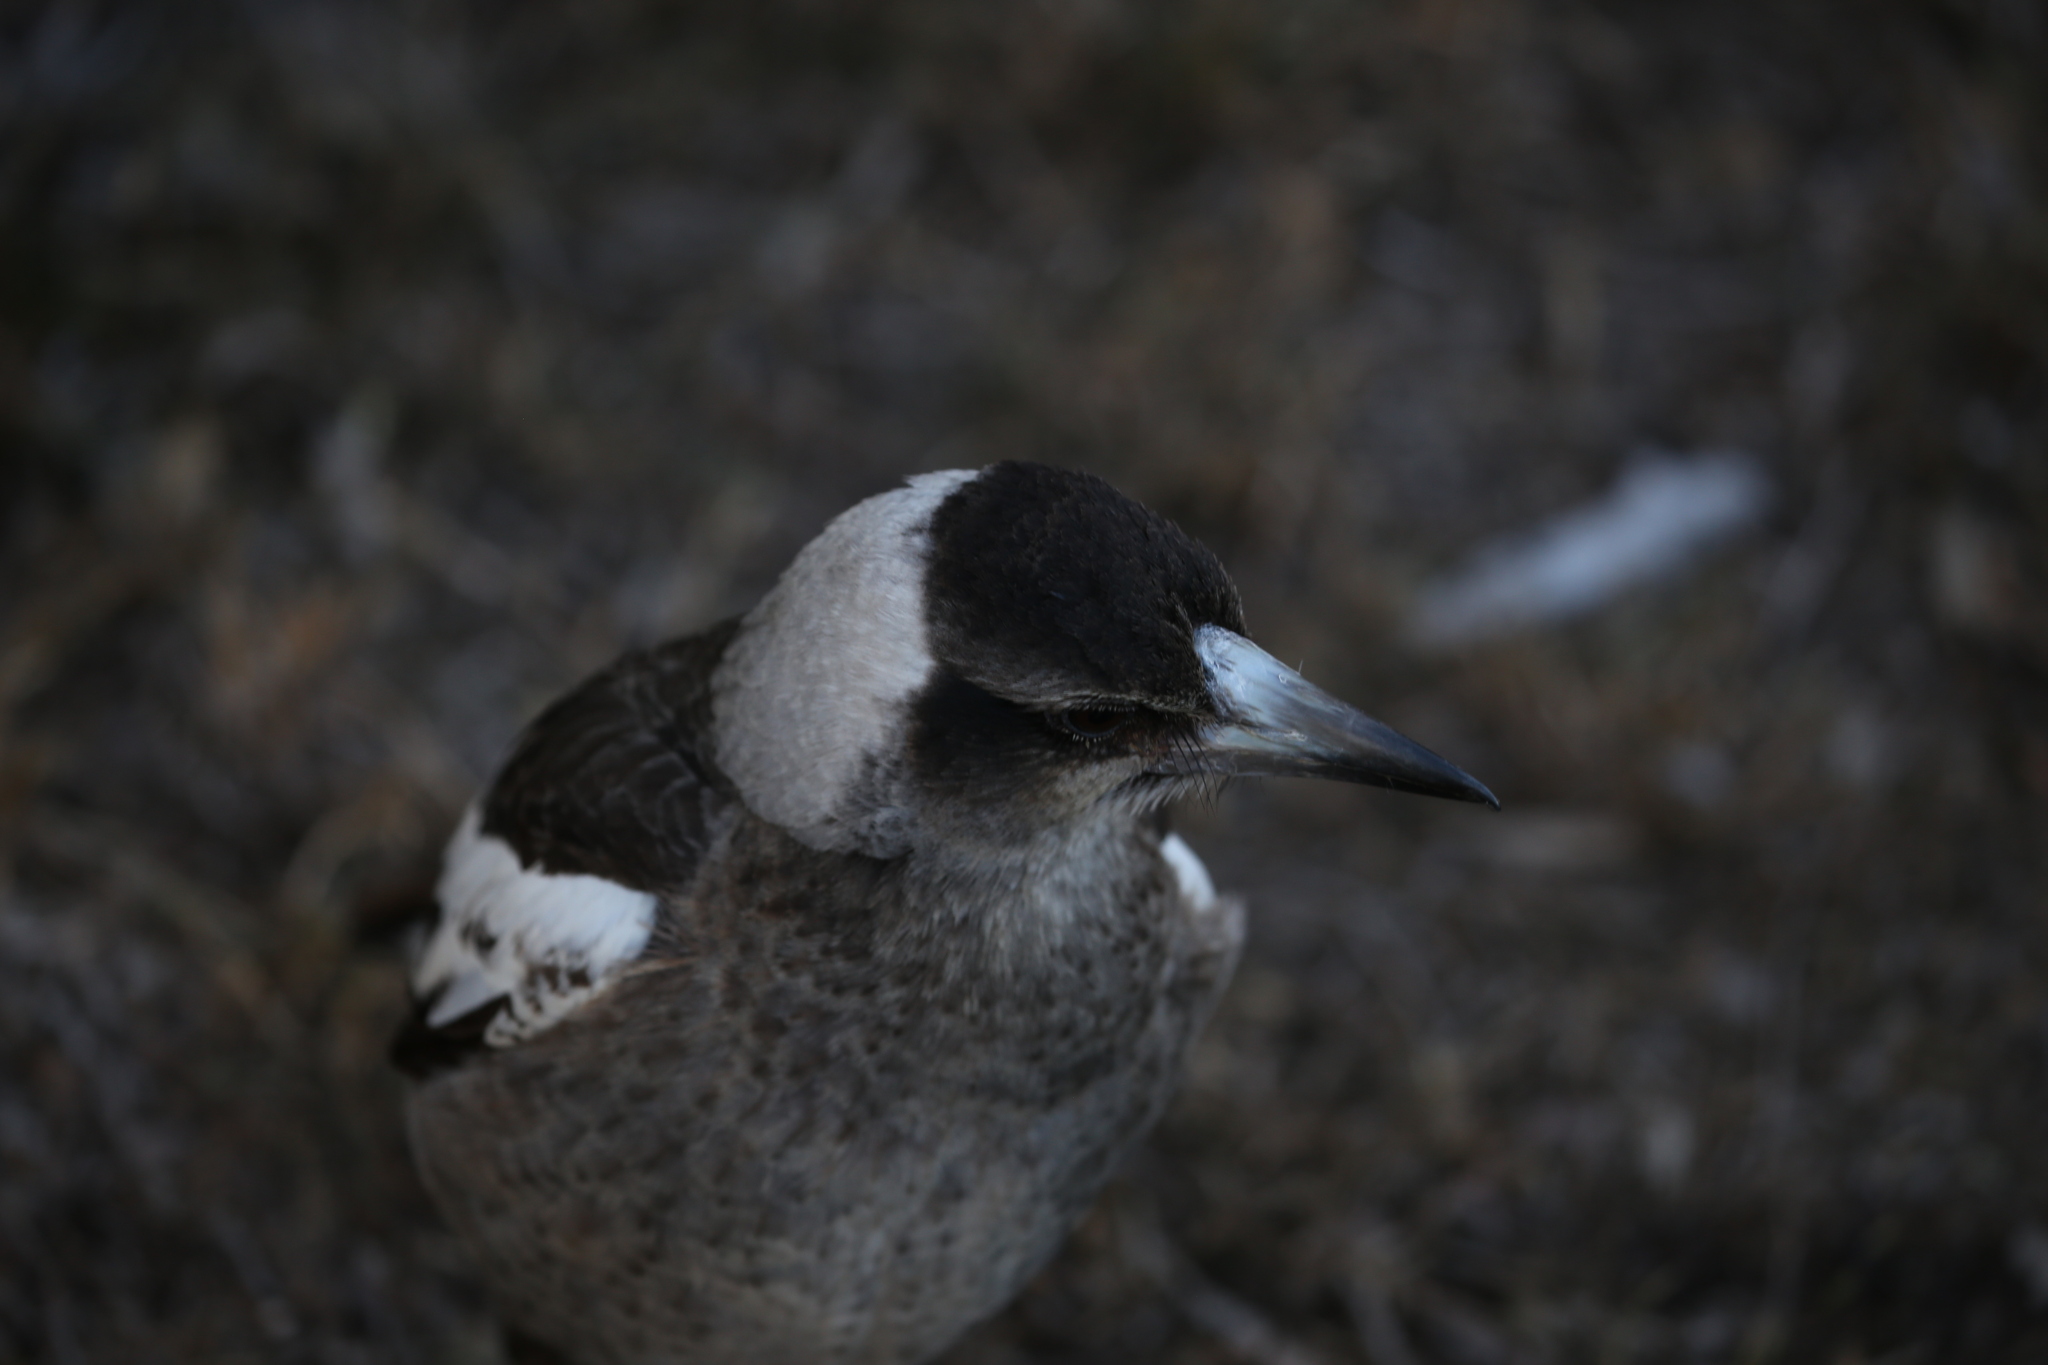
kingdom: Animalia
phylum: Chordata
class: Aves
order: Passeriformes
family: Cracticidae
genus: Gymnorhina
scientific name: Gymnorhina tibicen
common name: Australian magpie
